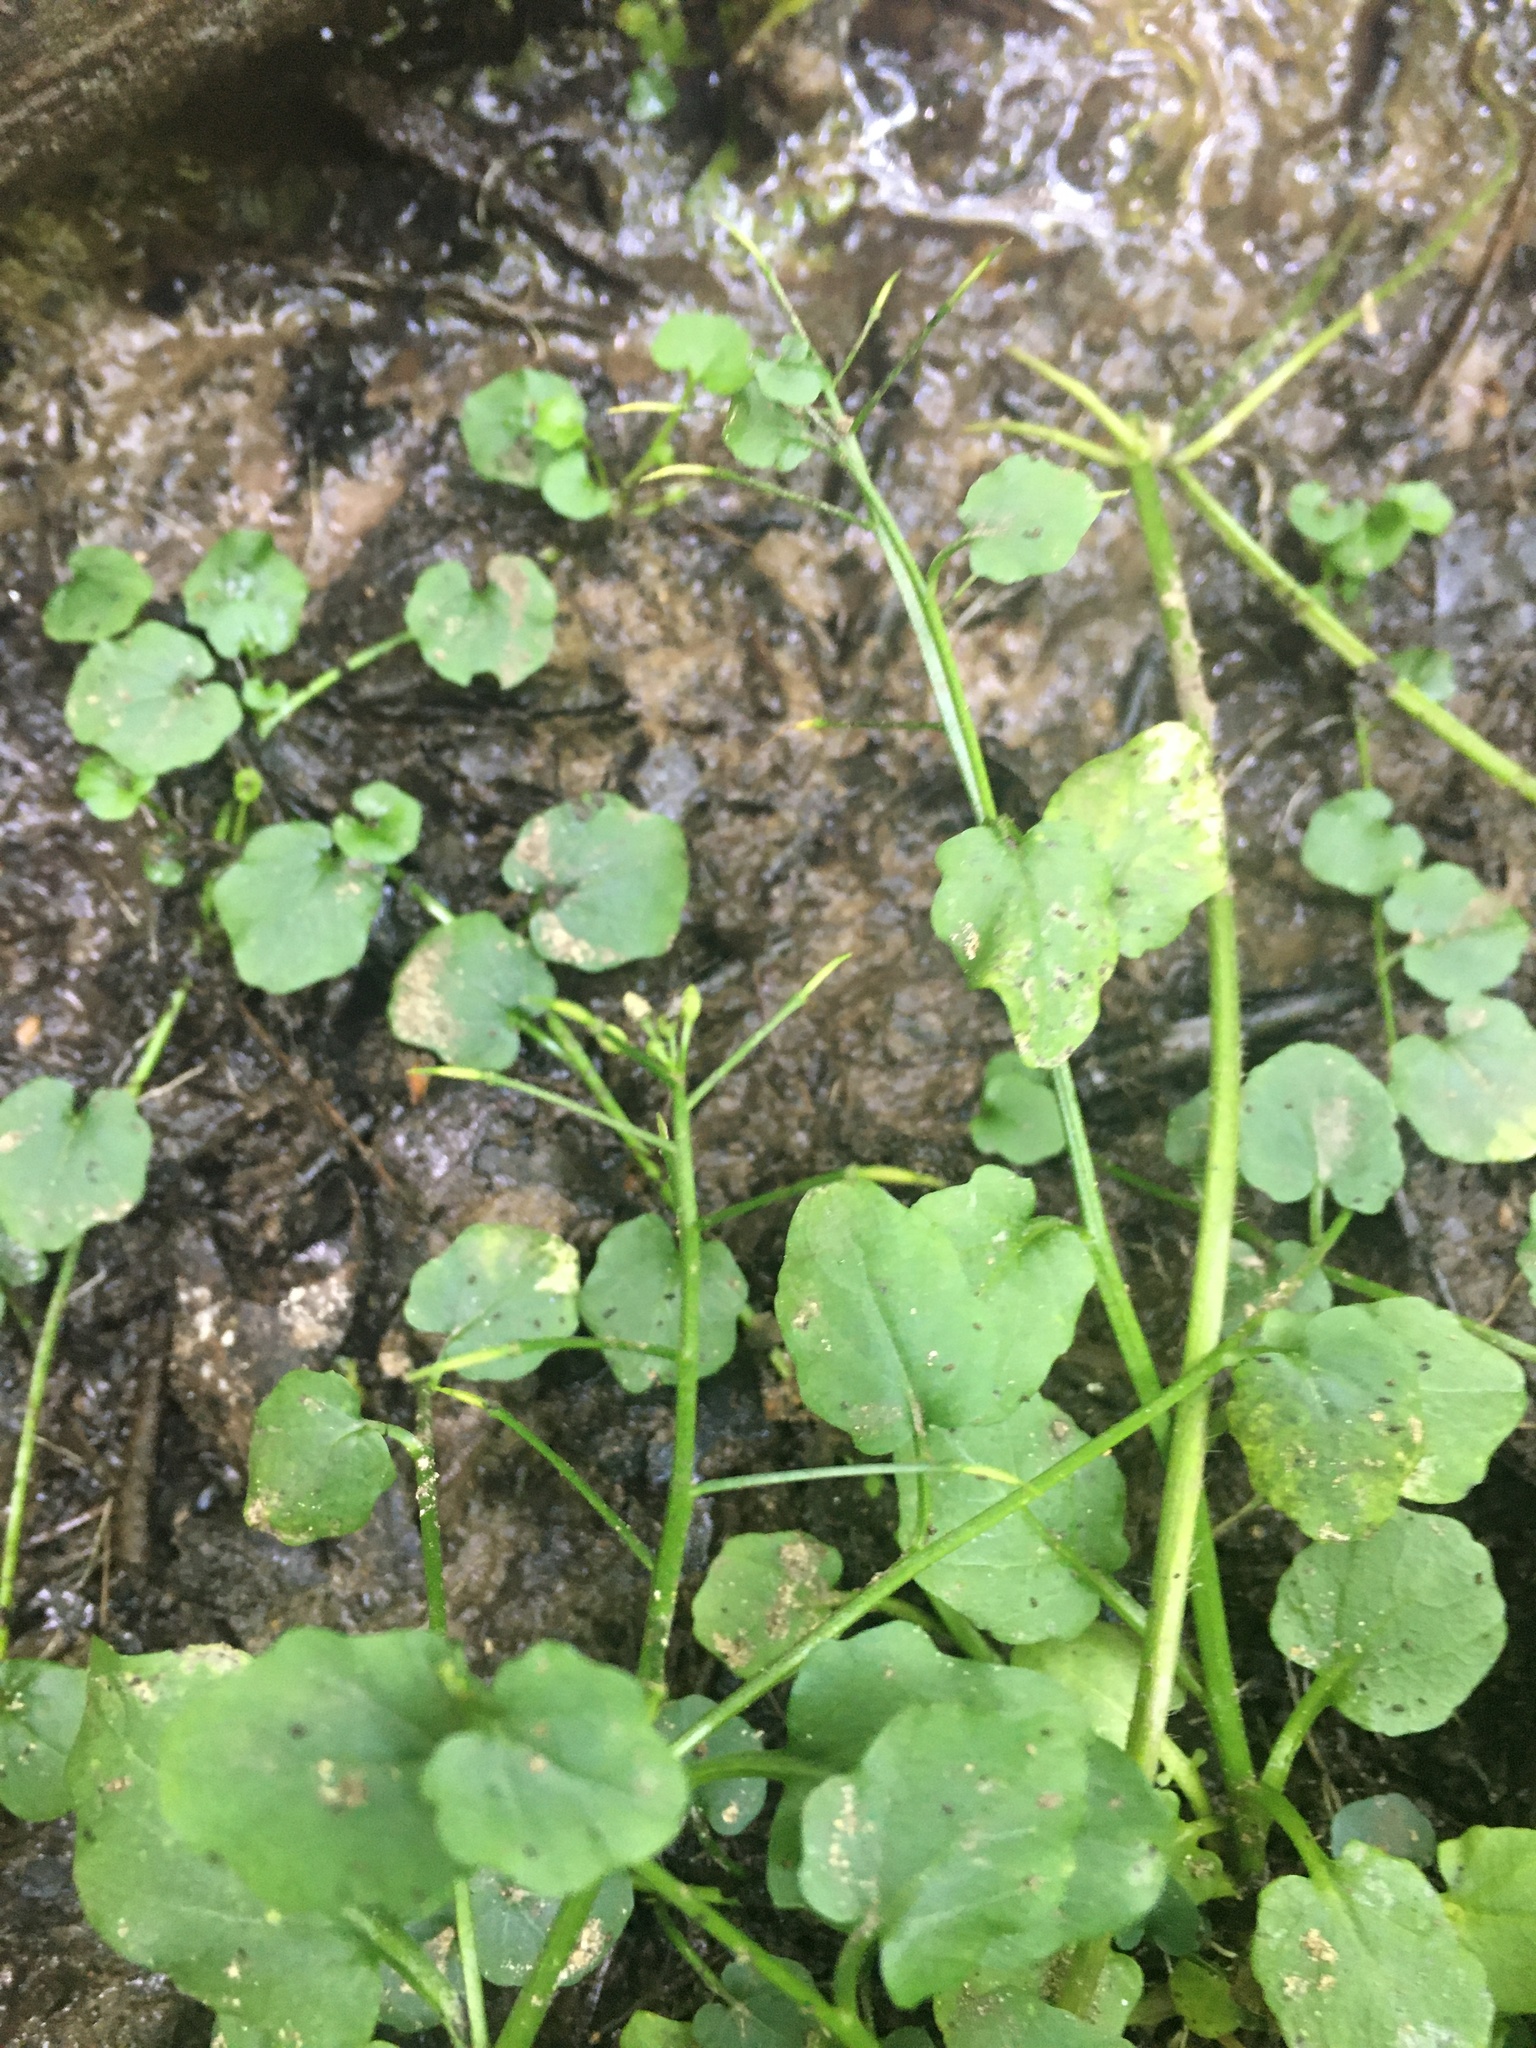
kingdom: Plantae
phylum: Tracheophyta
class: Magnoliopsida
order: Brassicales
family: Brassicaceae
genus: Cardamine
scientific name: Cardamine rotundifolia
